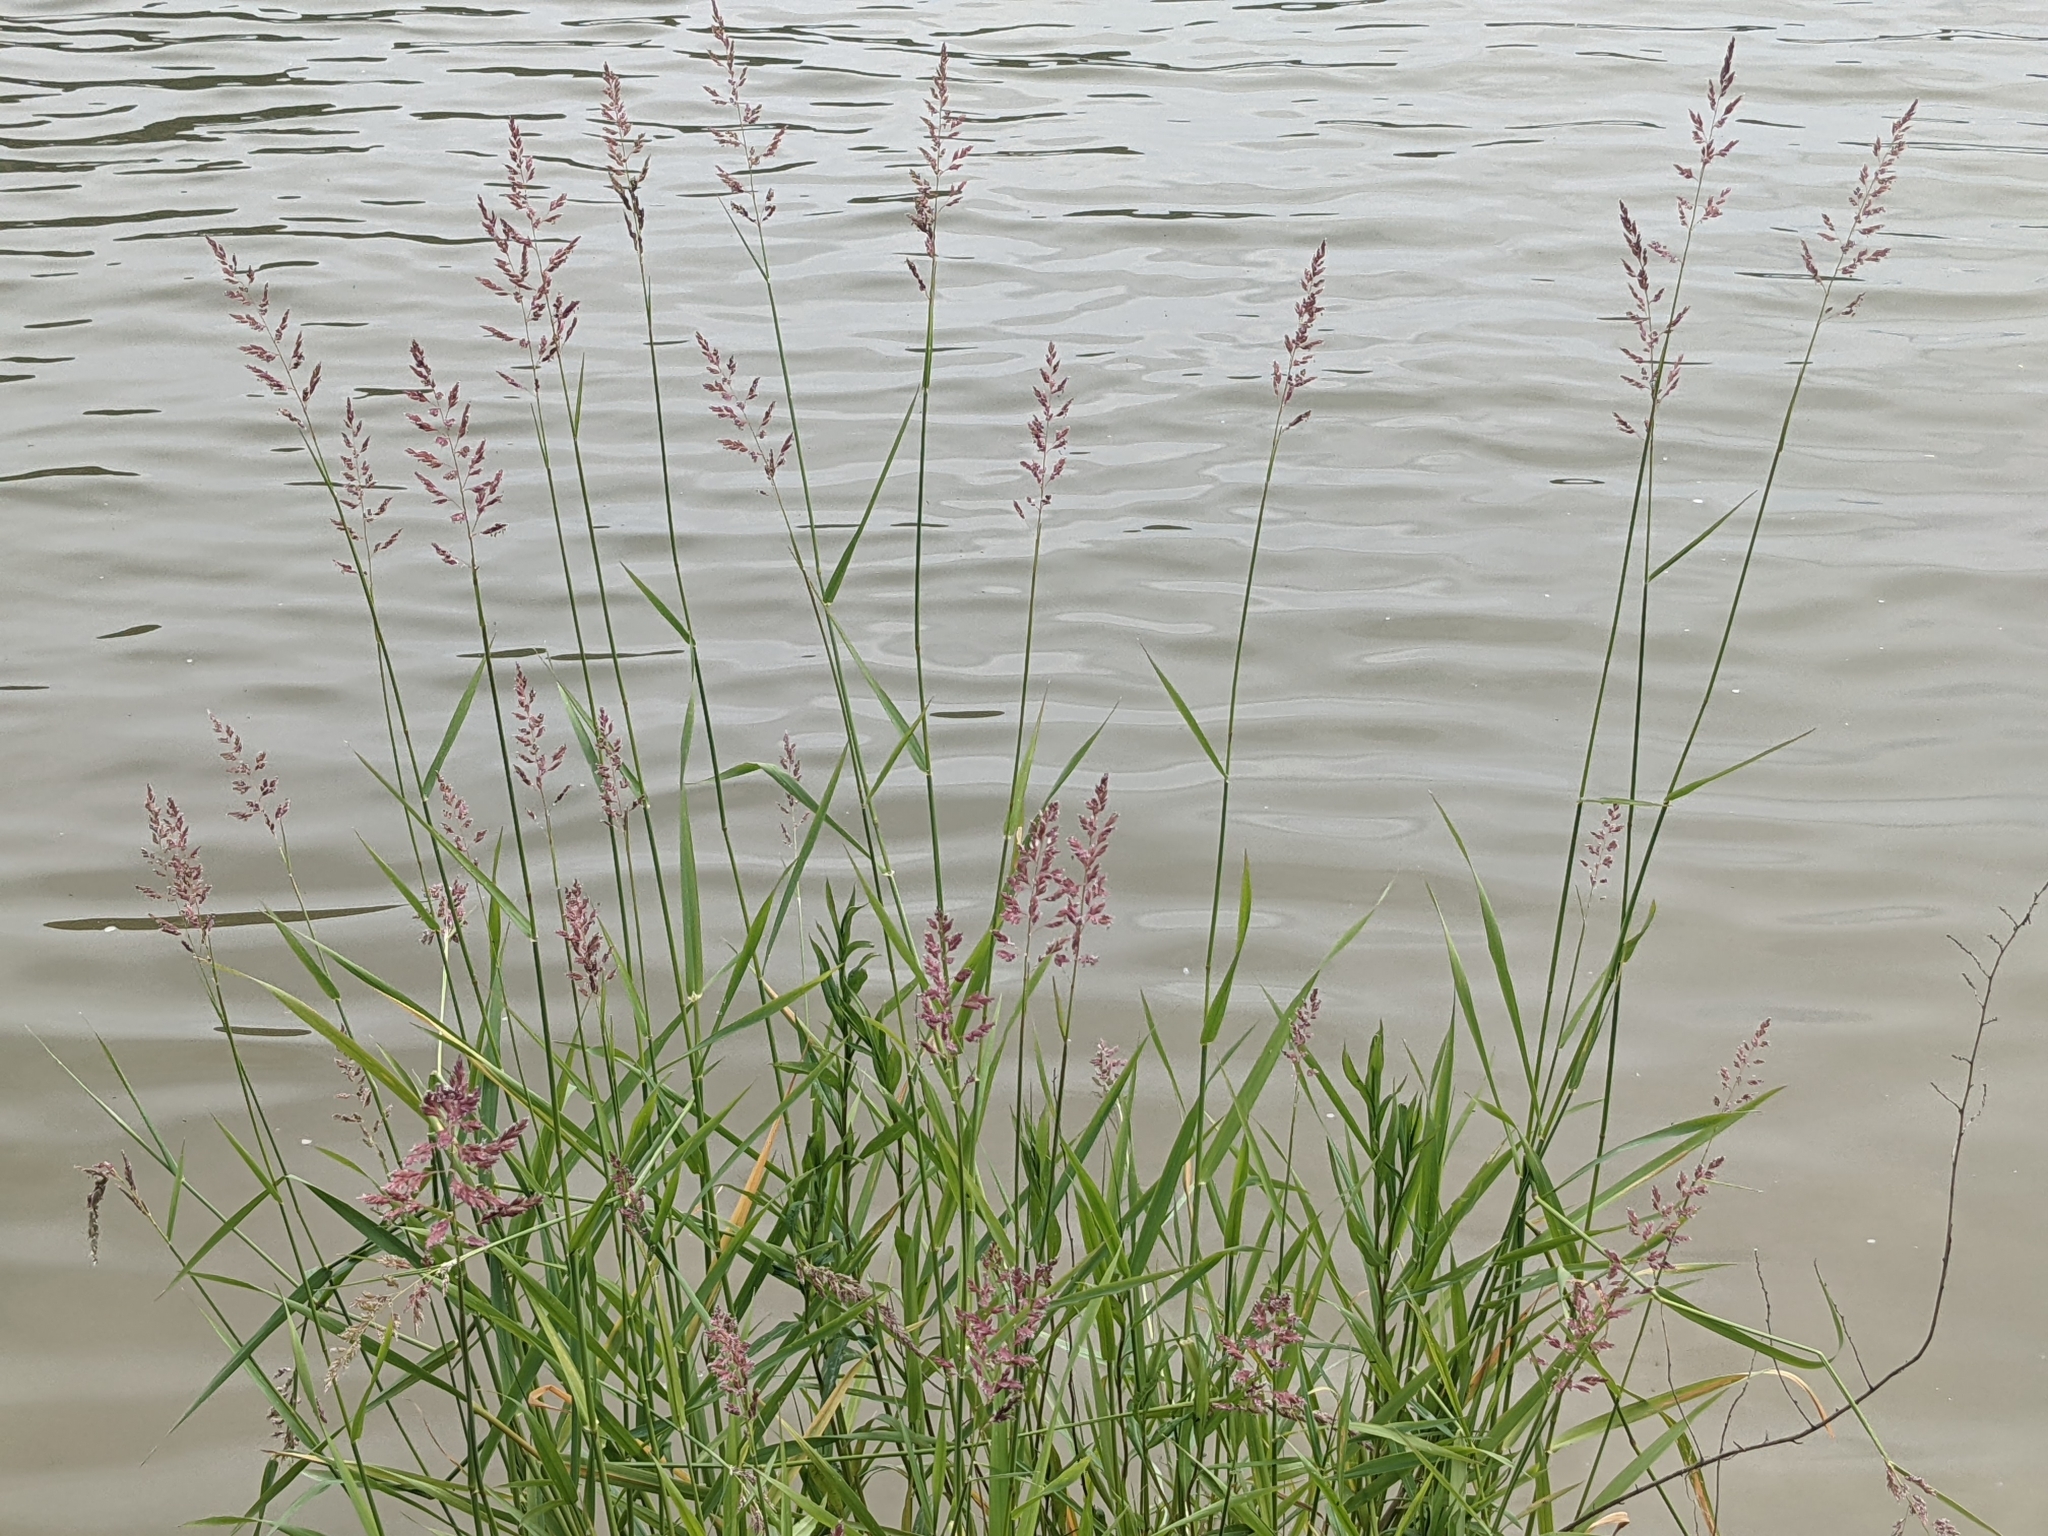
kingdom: Plantae
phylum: Tracheophyta
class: Liliopsida
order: Poales
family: Poaceae
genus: Phalaris
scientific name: Phalaris arundinacea
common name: Reed canary-grass
